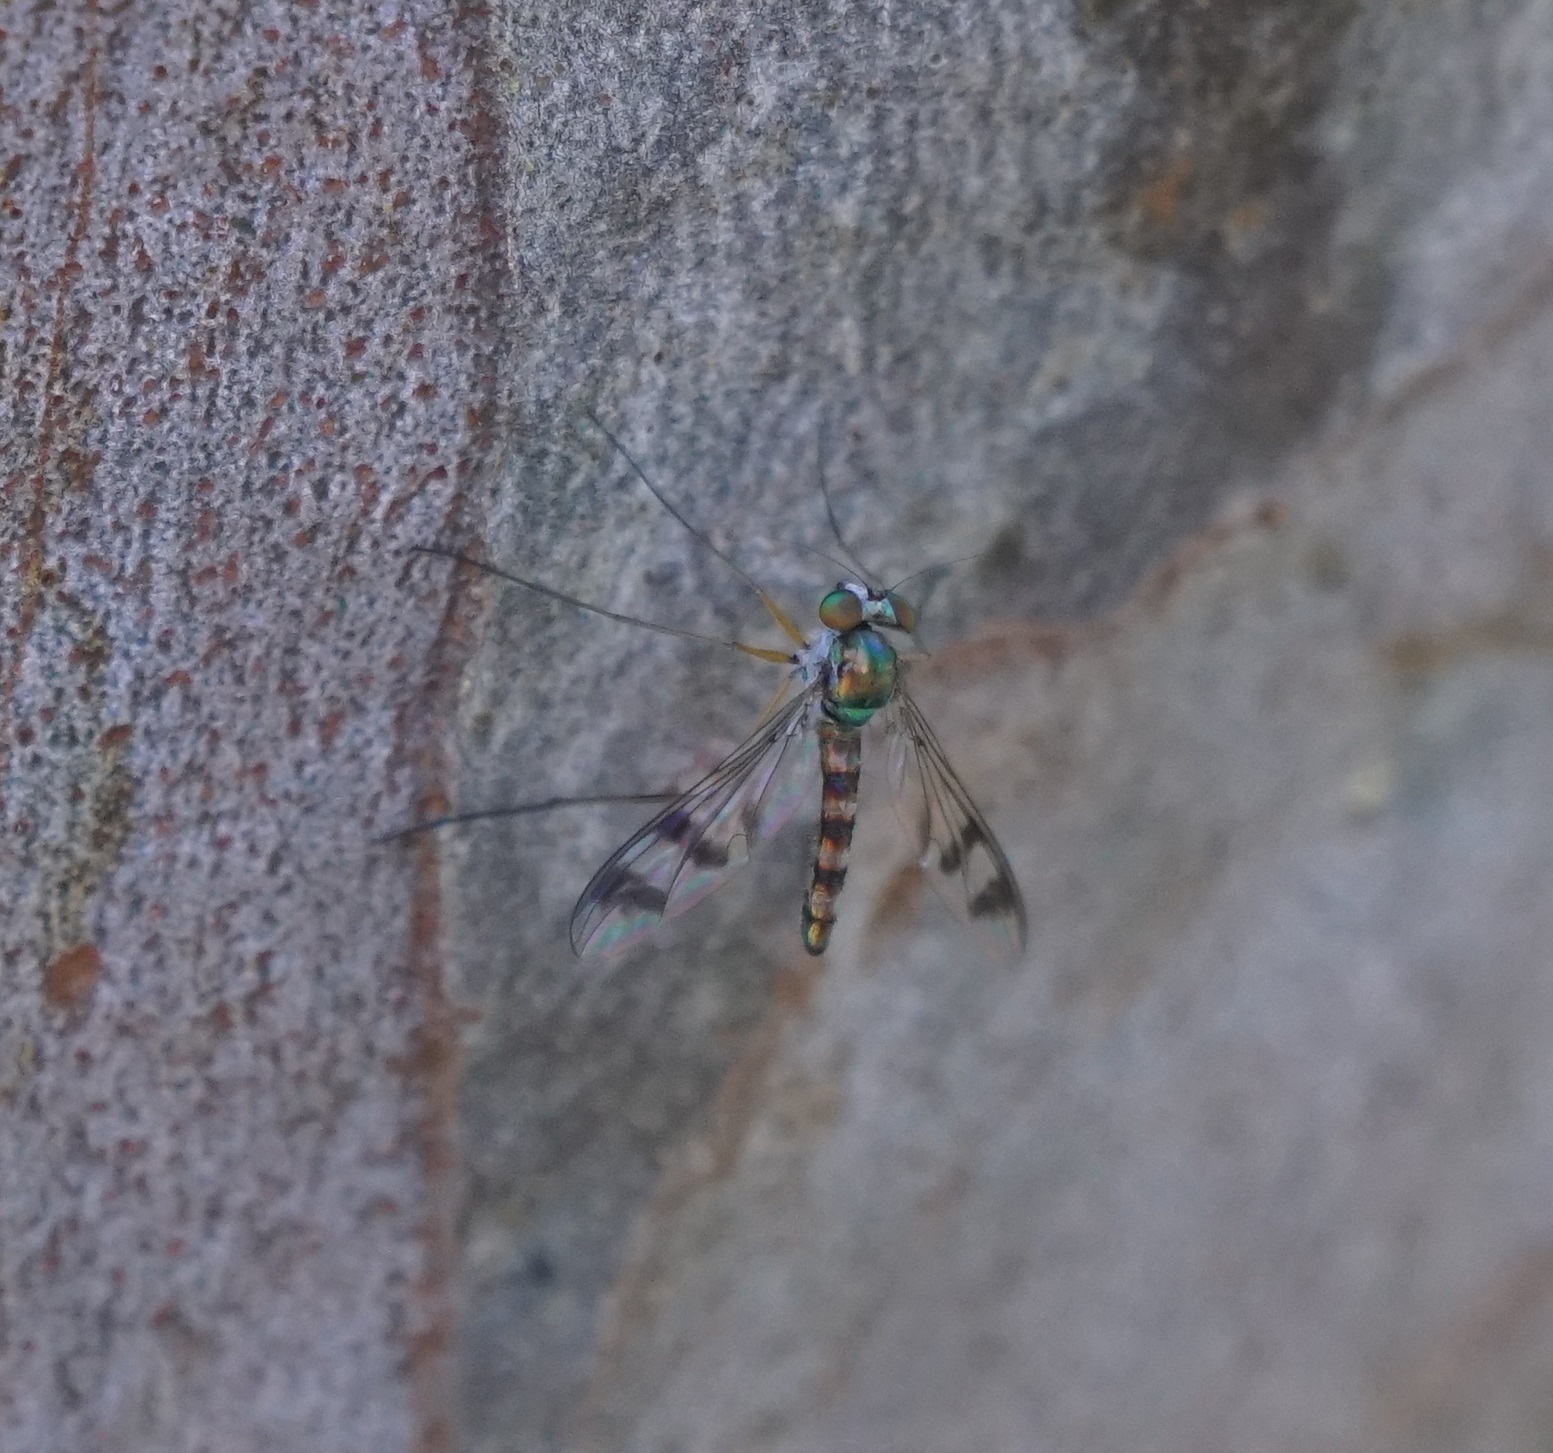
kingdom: Animalia
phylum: Arthropoda
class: Insecta
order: Diptera
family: Dolichopodidae
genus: Heteropsilopus
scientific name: Heteropsilopus squamifer
